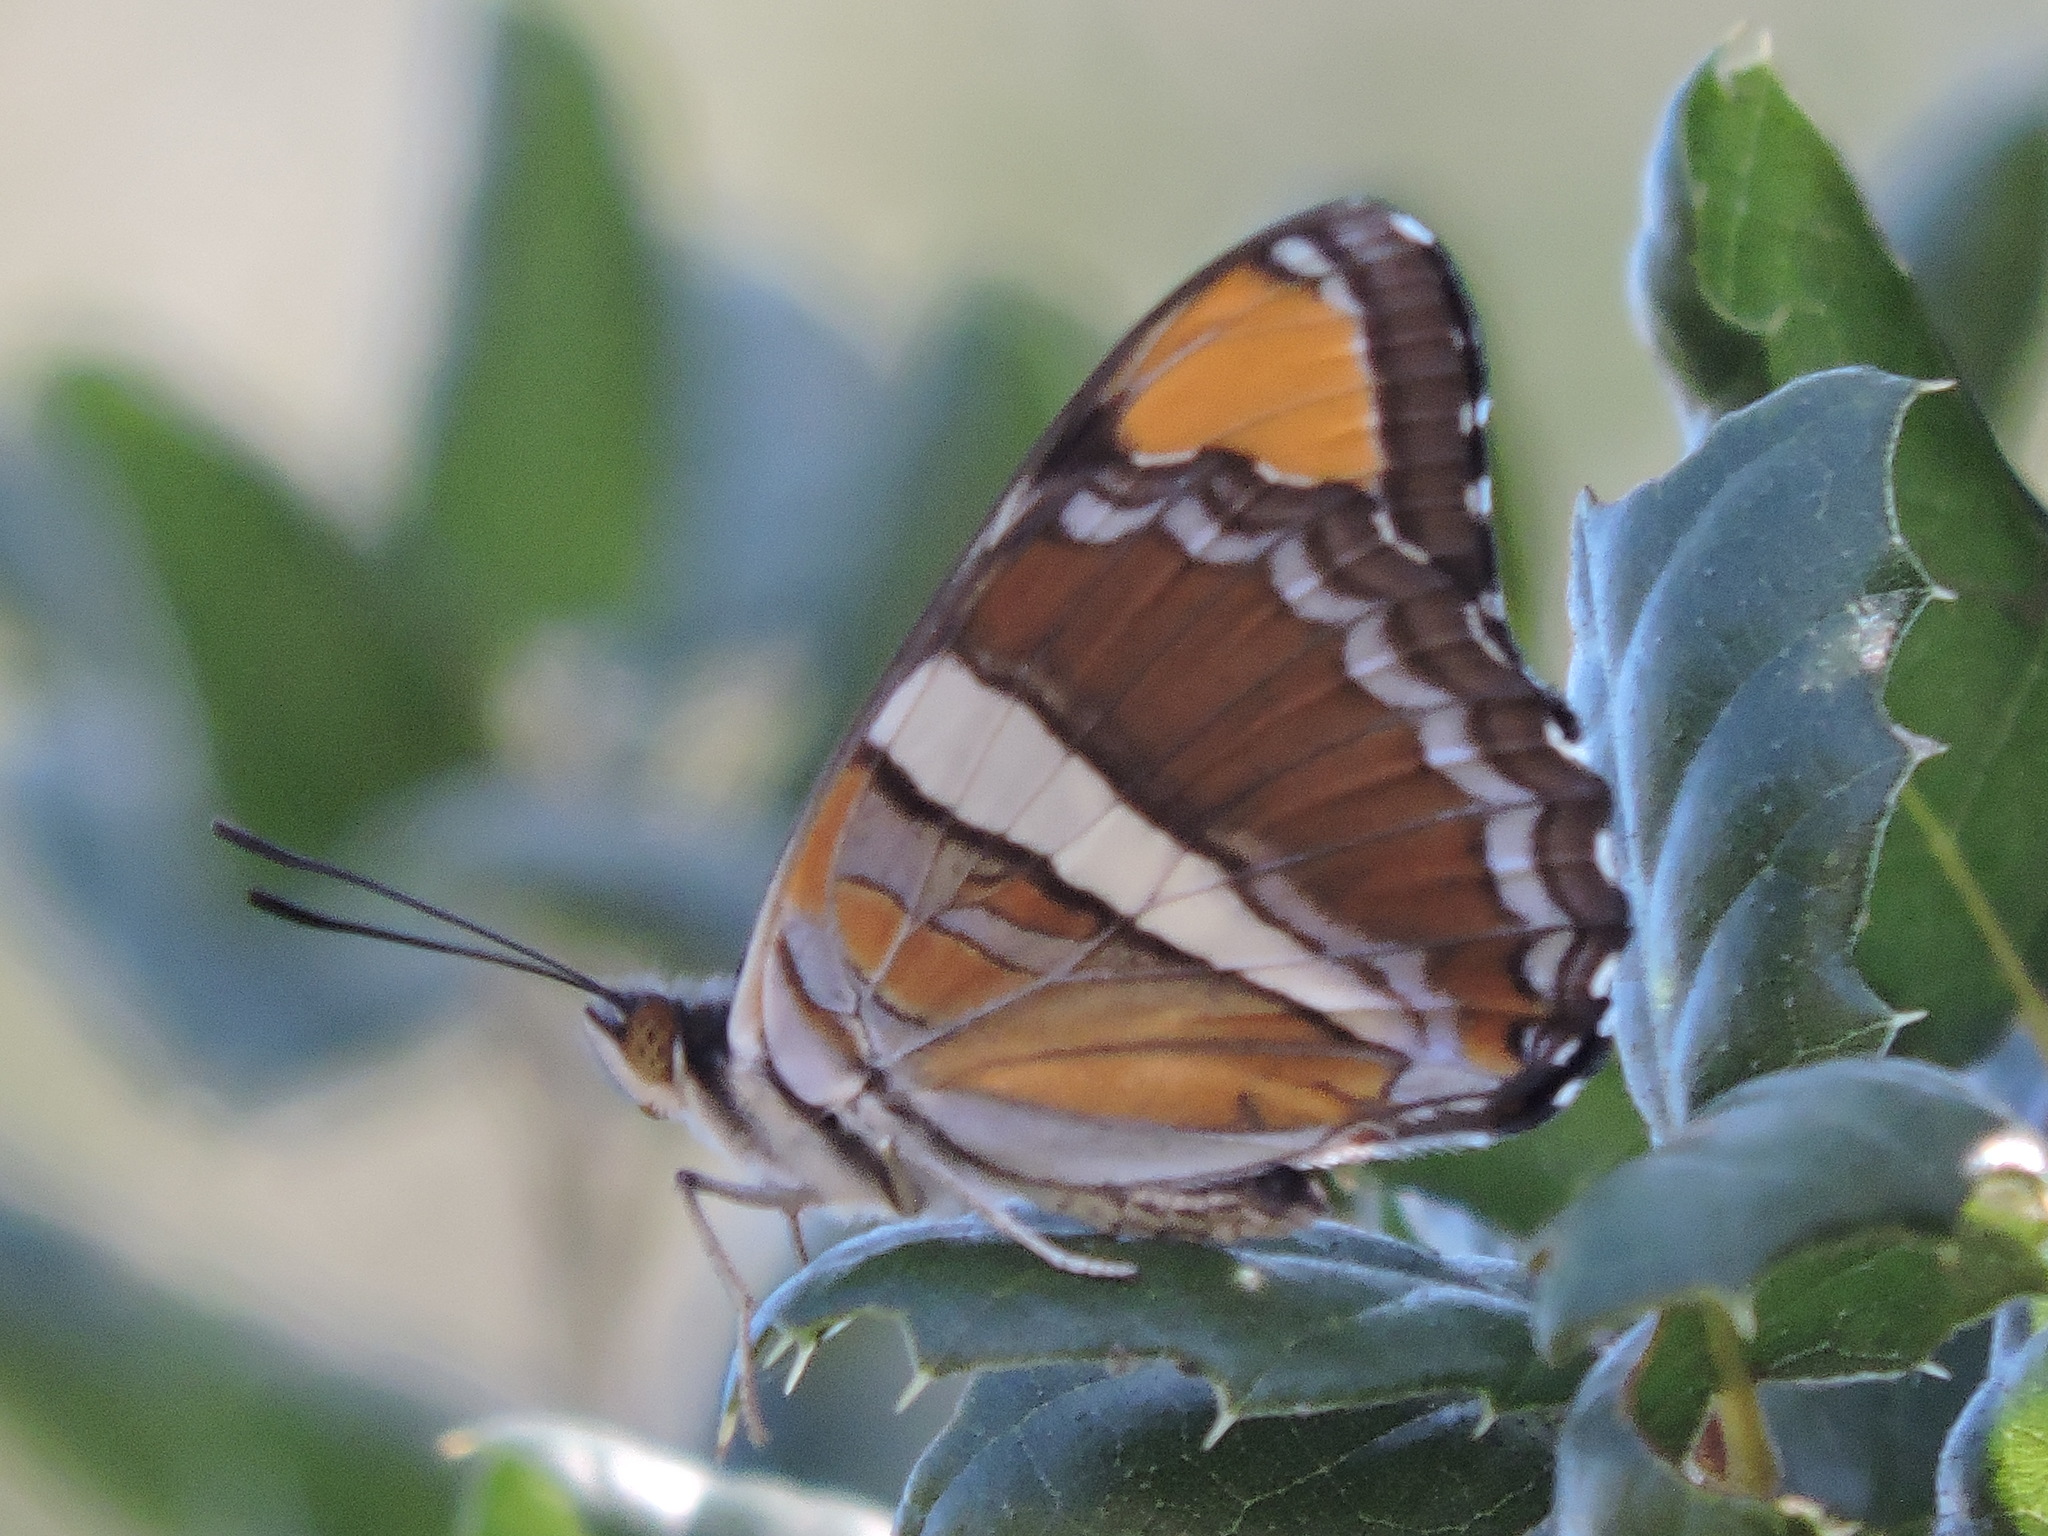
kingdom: Animalia
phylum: Arthropoda
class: Insecta
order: Lepidoptera
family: Nymphalidae
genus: Limenitis
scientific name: Limenitis bredowii
